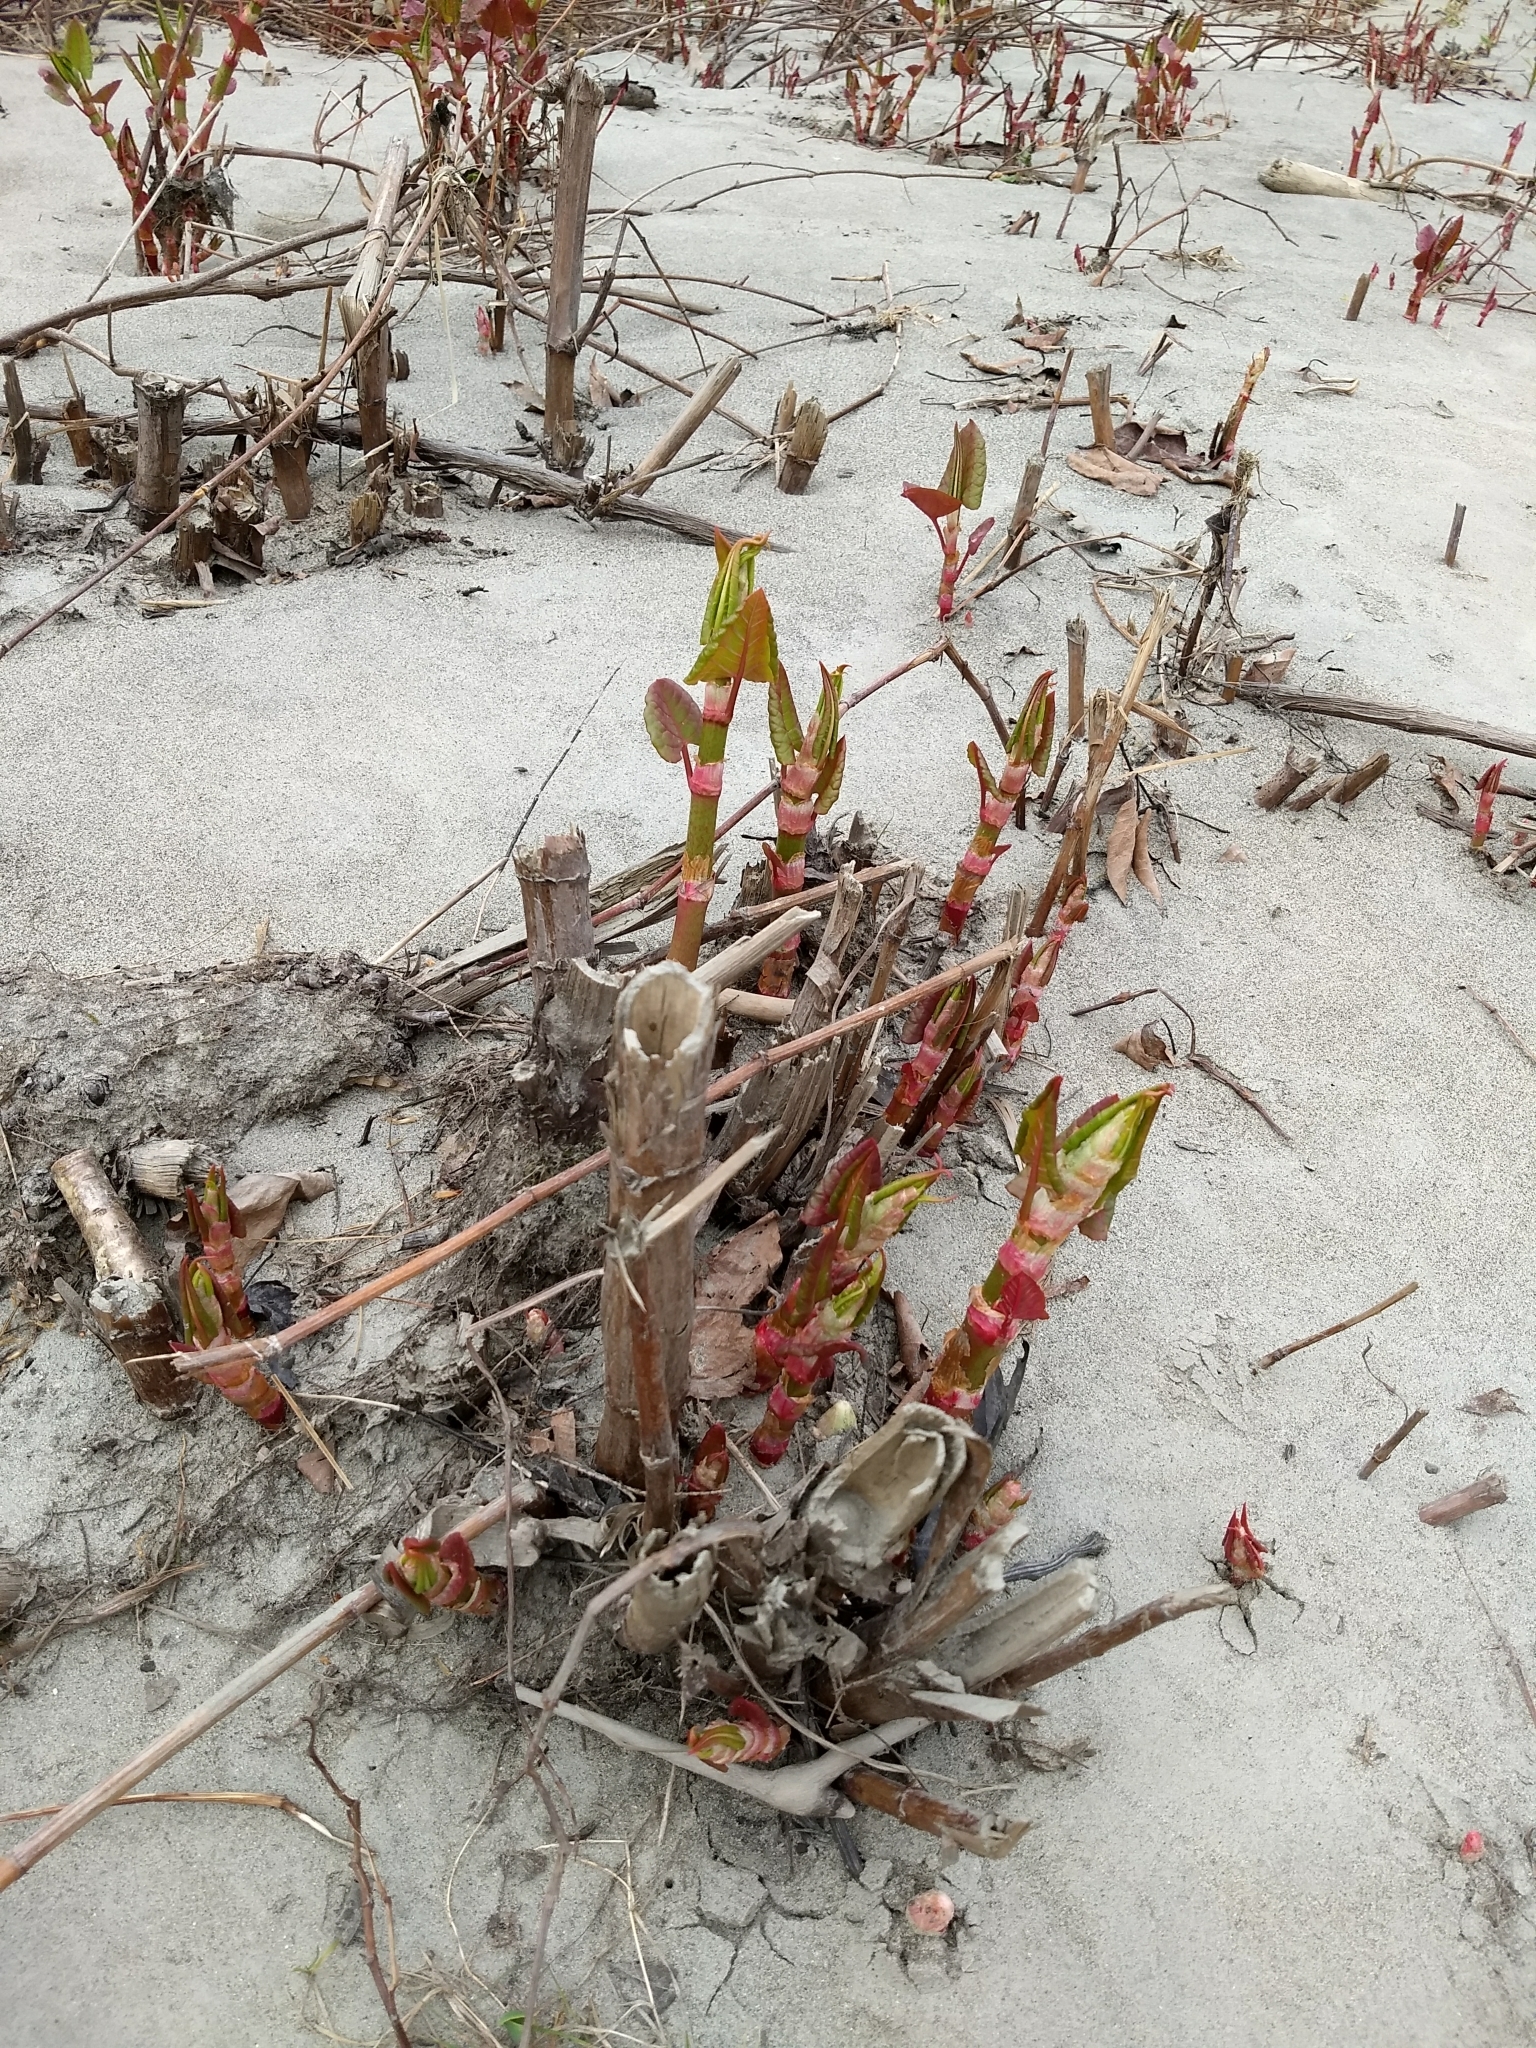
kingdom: Plantae
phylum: Tracheophyta
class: Magnoliopsida
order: Caryophyllales
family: Polygonaceae
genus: Reynoutria
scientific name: Reynoutria japonica
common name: Japanese knotweed
